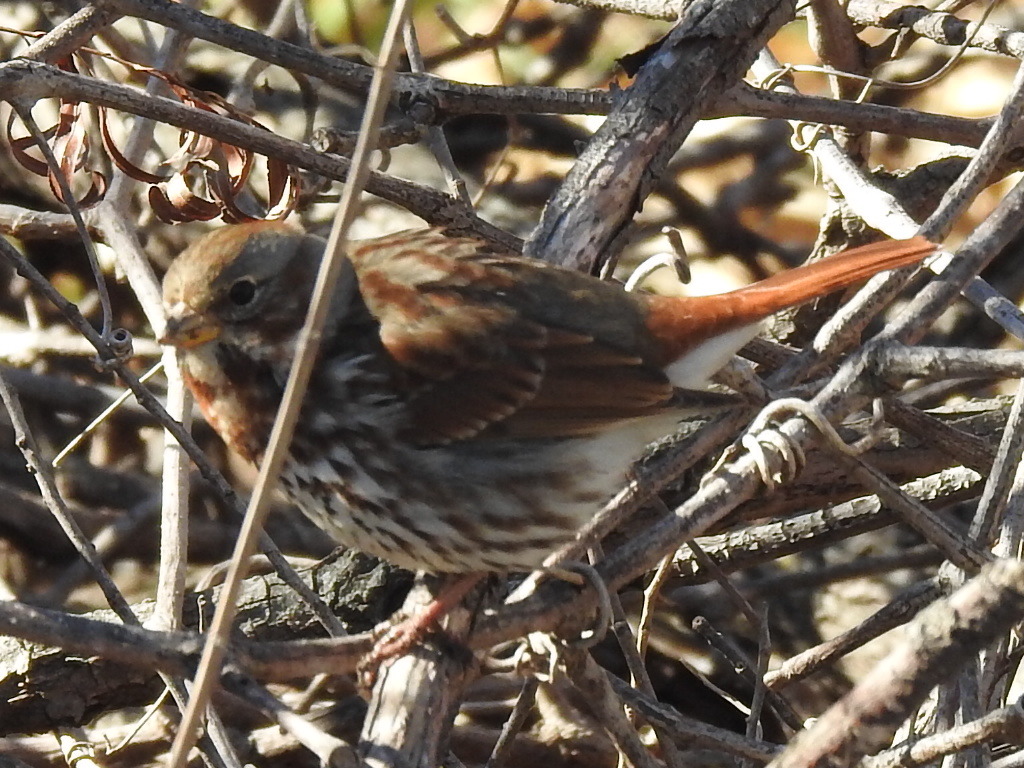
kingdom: Animalia
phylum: Chordata
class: Aves
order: Passeriformes
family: Passerellidae
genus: Passerella
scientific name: Passerella iliaca
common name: Fox sparrow
